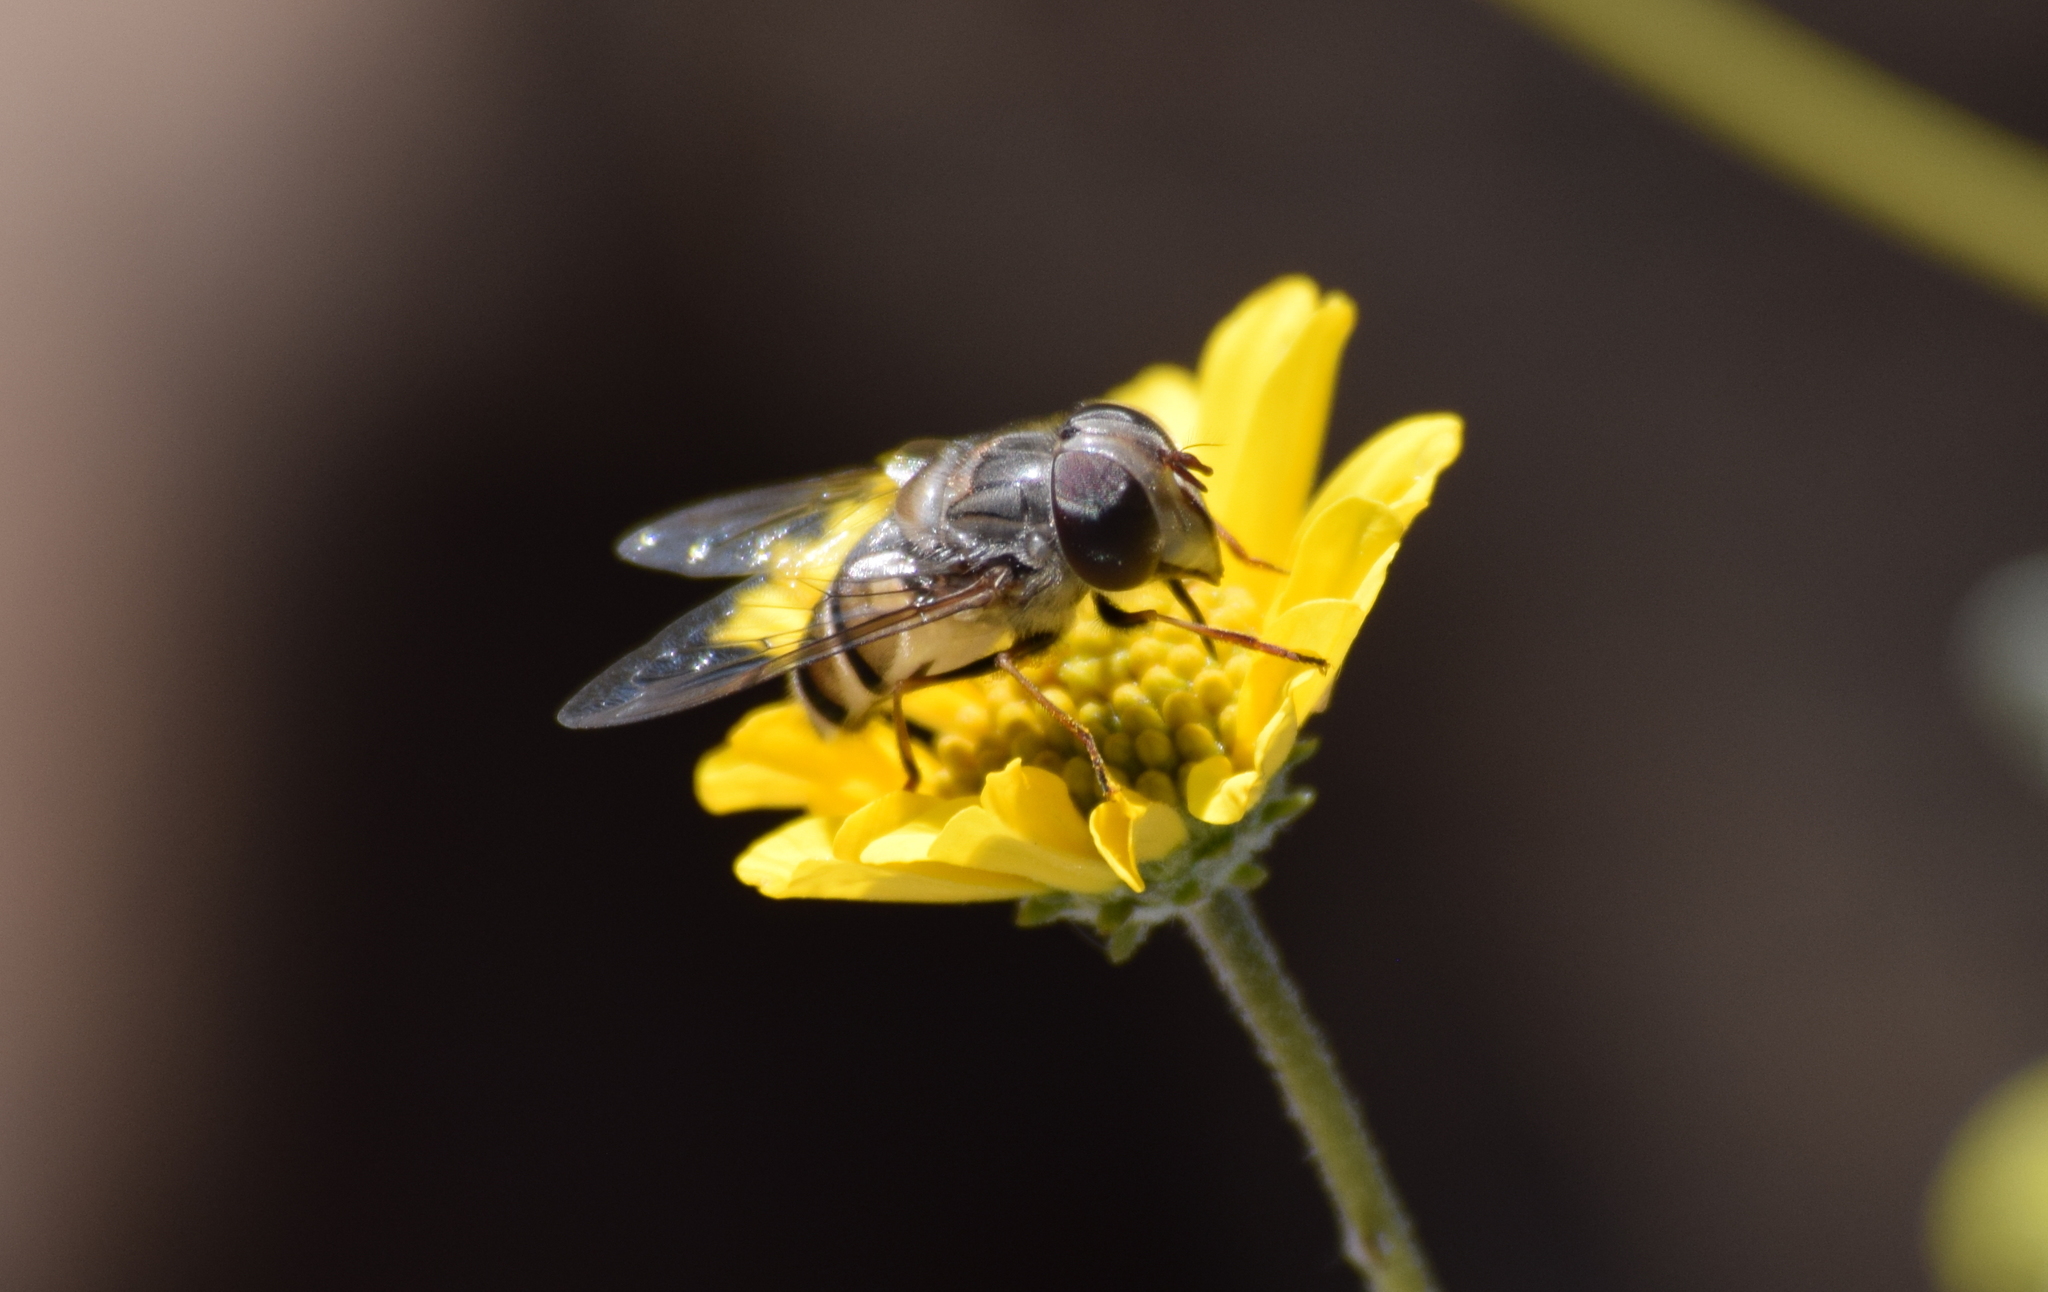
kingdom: Animalia
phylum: Arthropoda
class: Insecta
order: Diptera
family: Syrphidae
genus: Copestylum
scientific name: Copestylum isabellina
